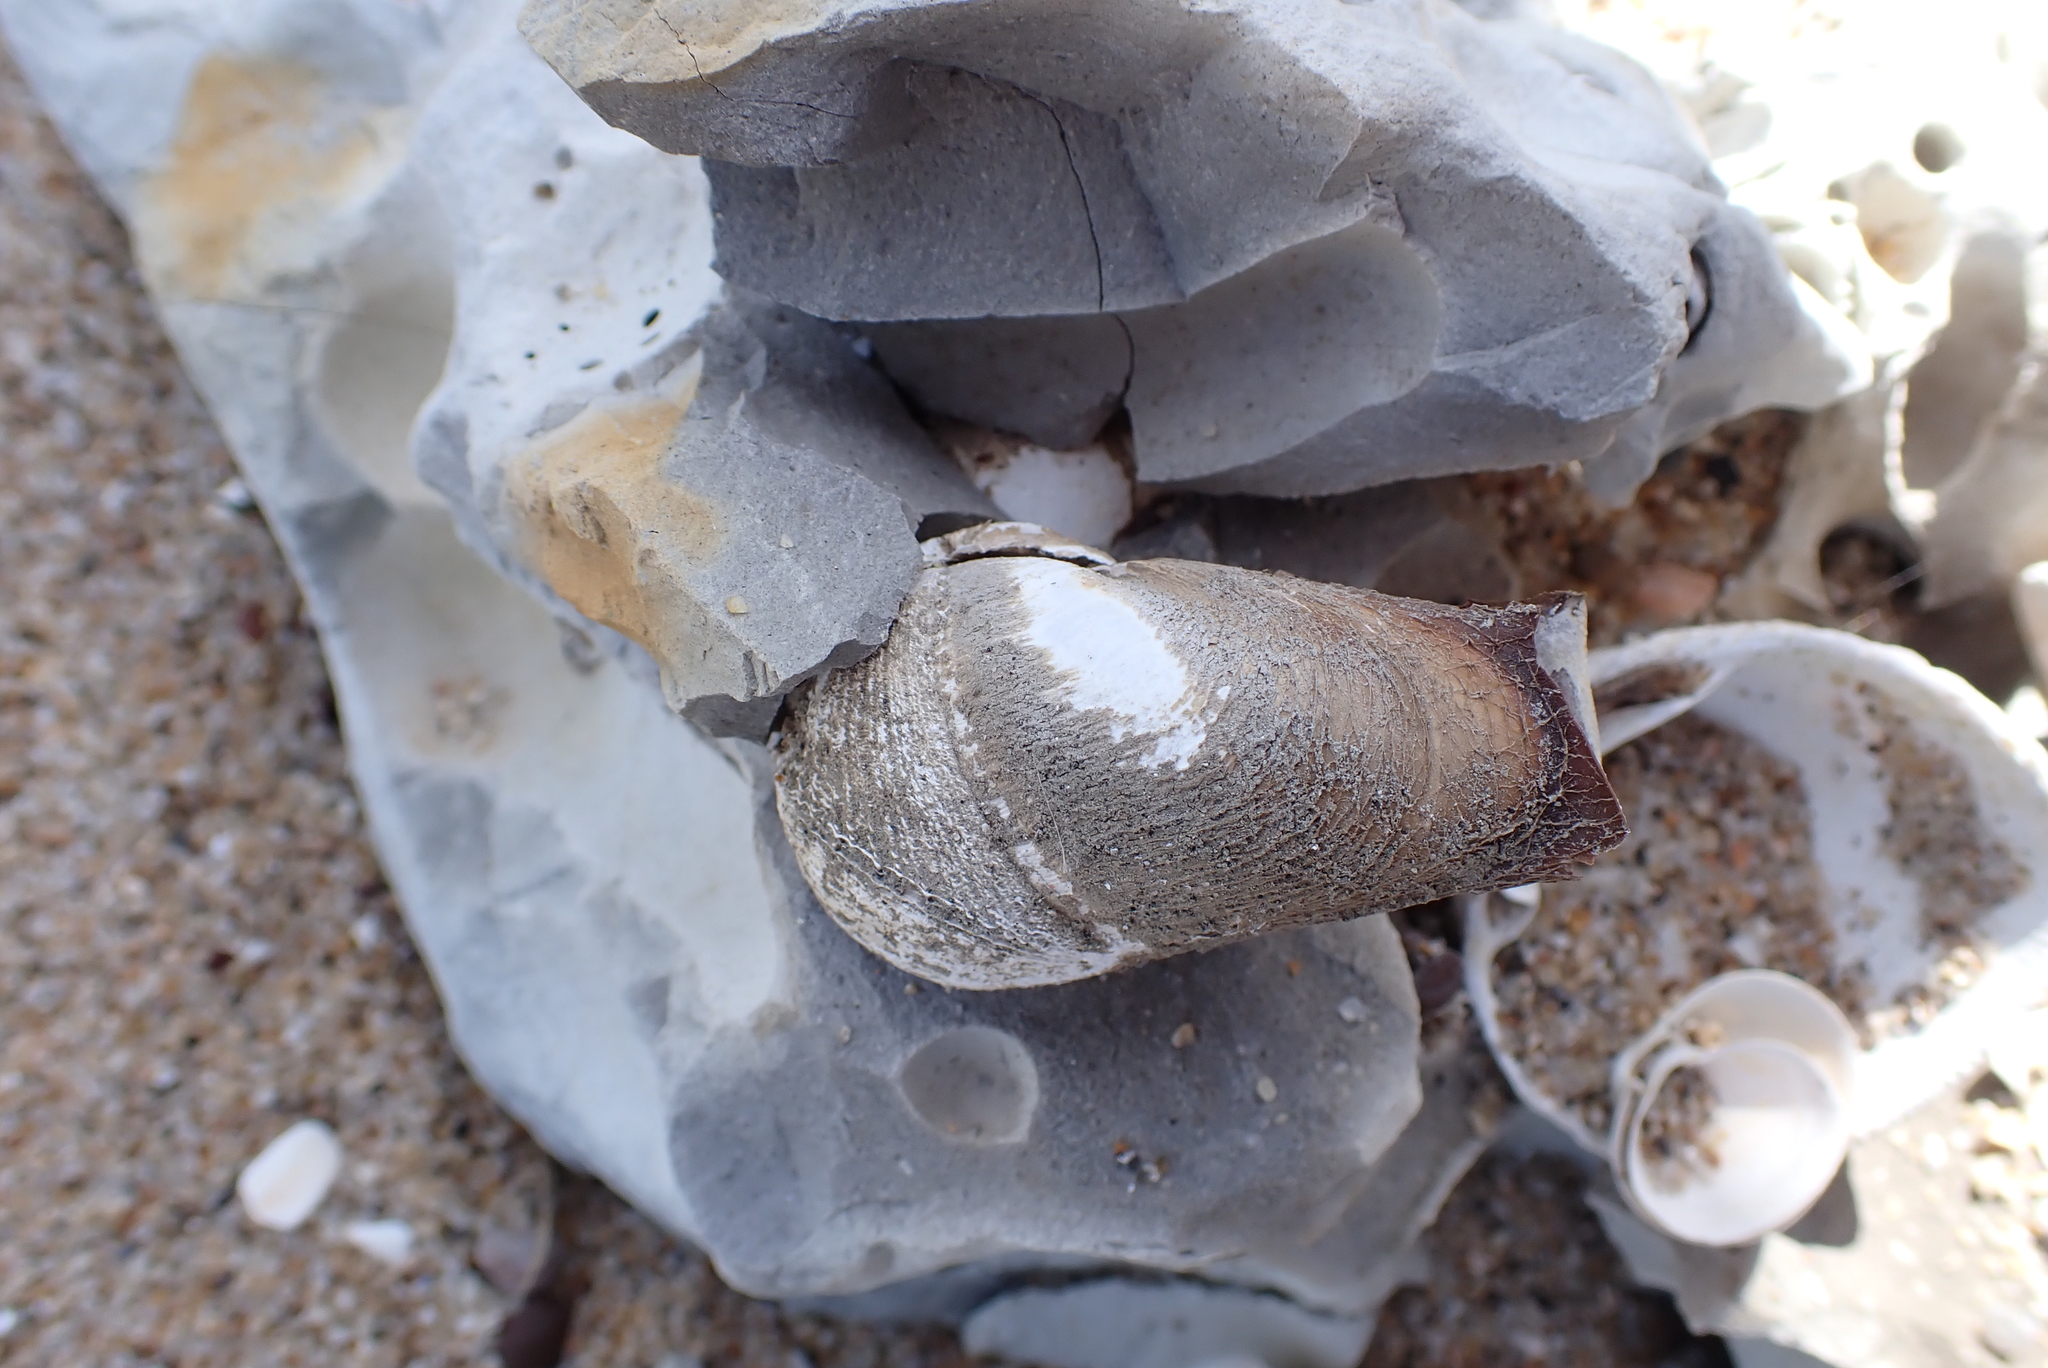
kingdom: Animalia
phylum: Mollusca
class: Bivalvia
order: Myida
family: Pholadidae
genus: Penitella
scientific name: Penitella penita
